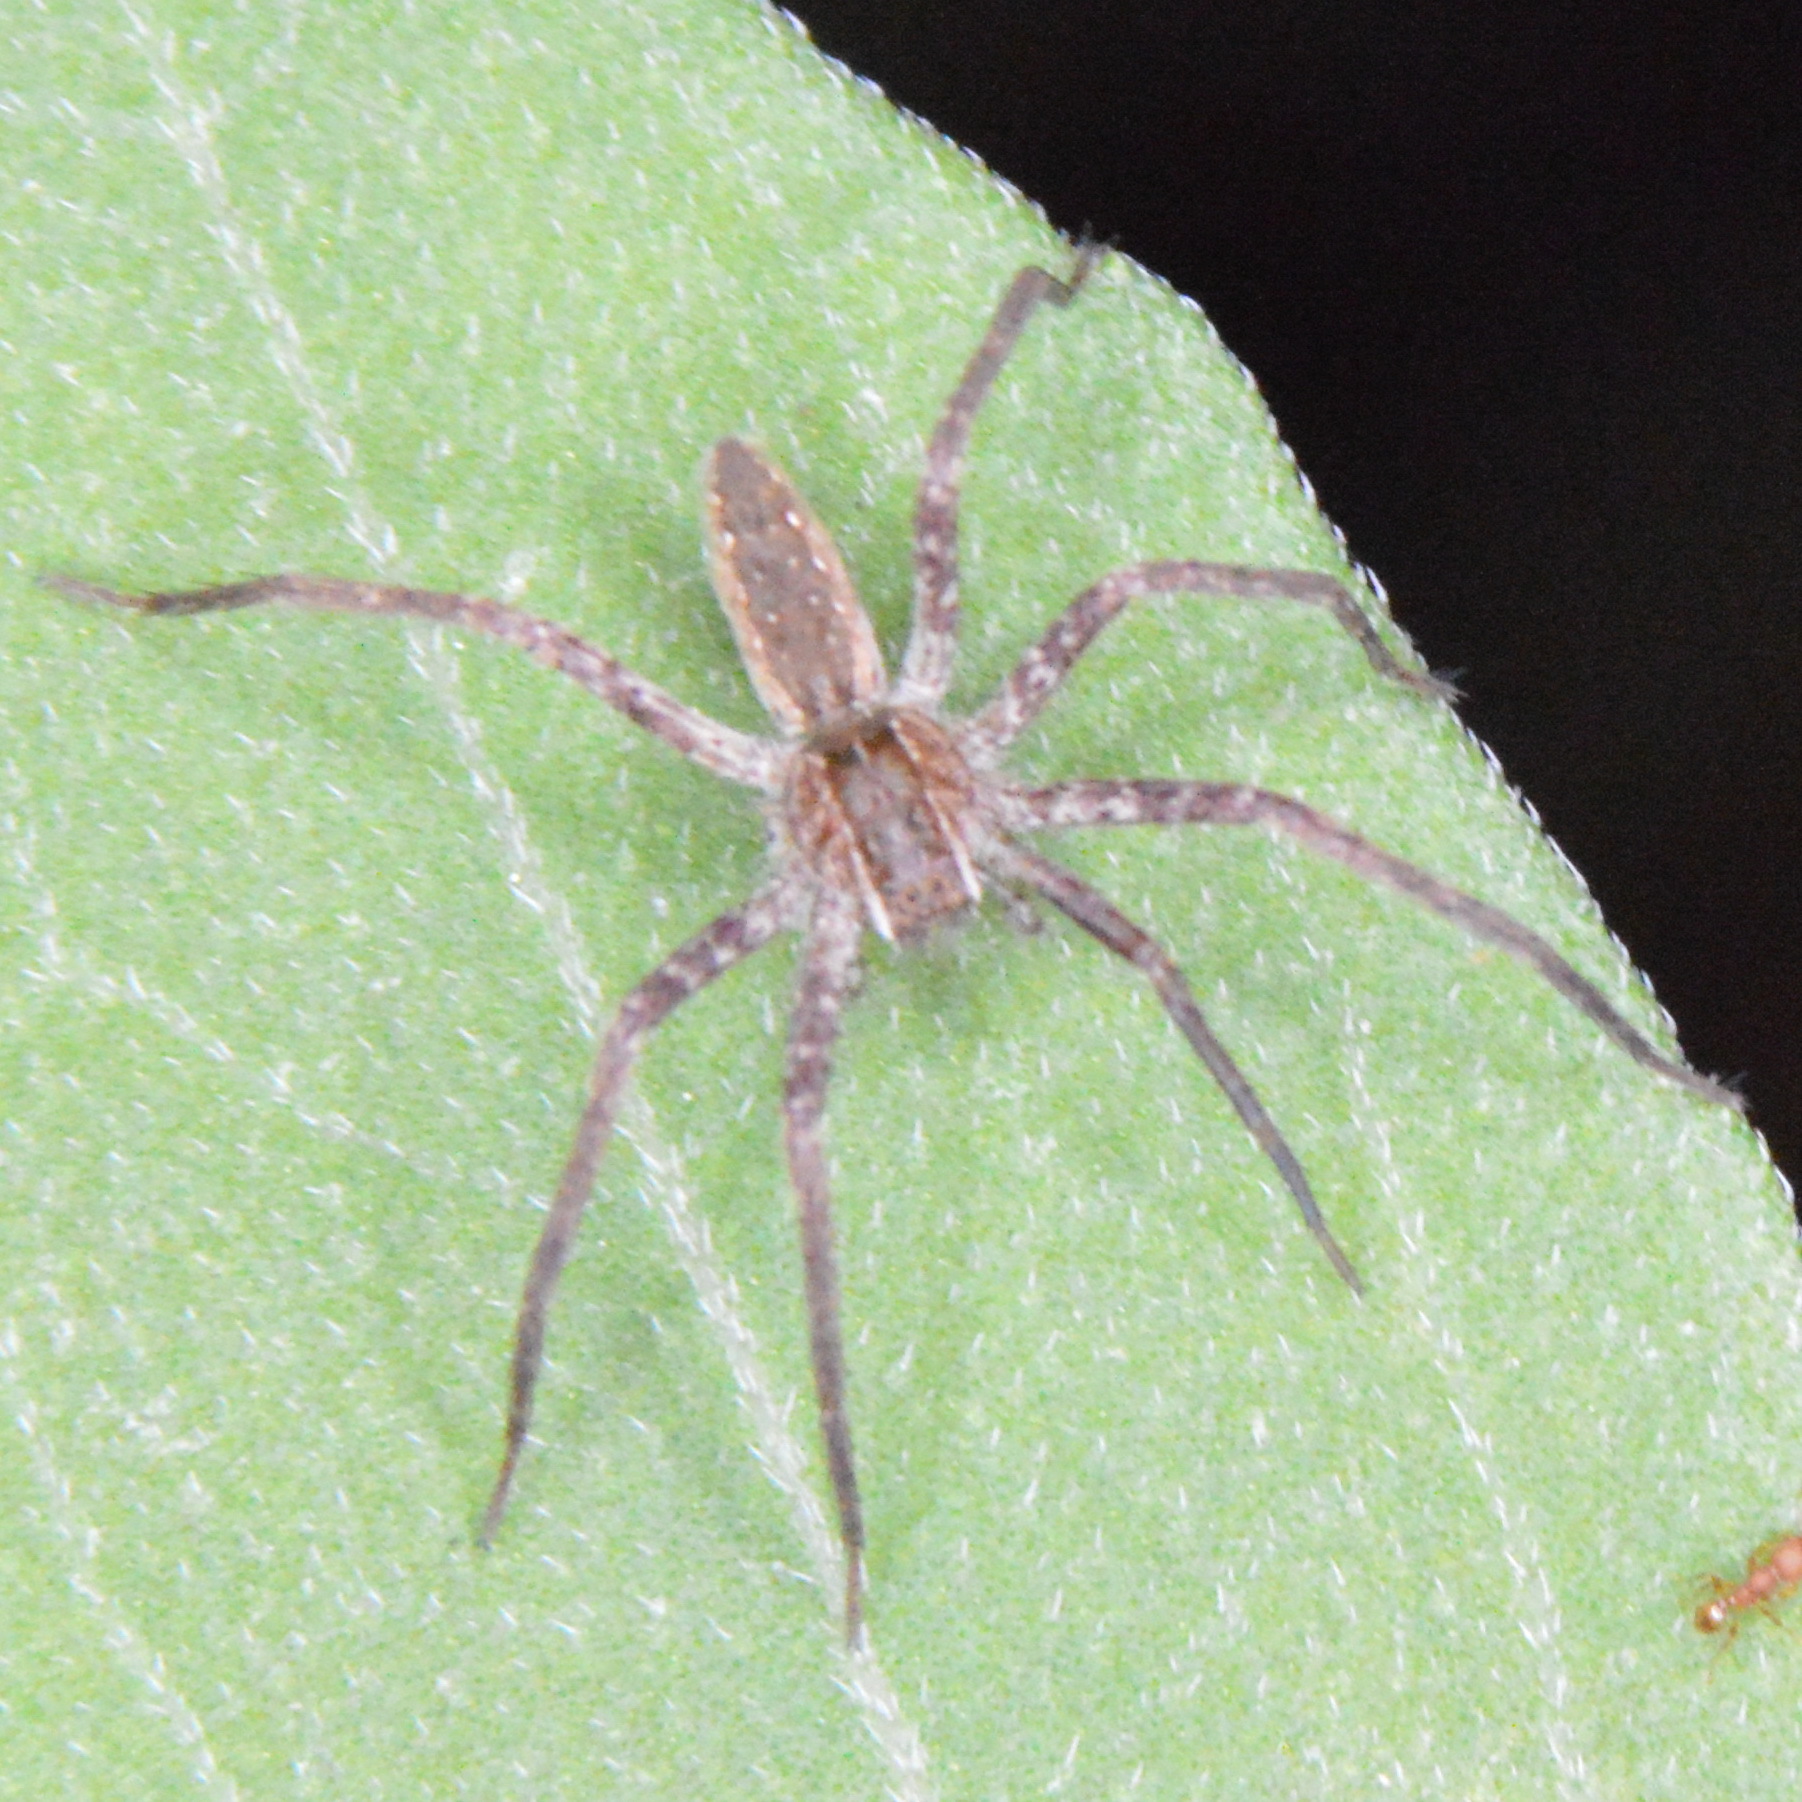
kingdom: Animalia
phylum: Arthropoda
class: Arachnida
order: Araneae
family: Pisauridae
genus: Pisaurina
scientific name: Pisaurina mira
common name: American nursery web spider
